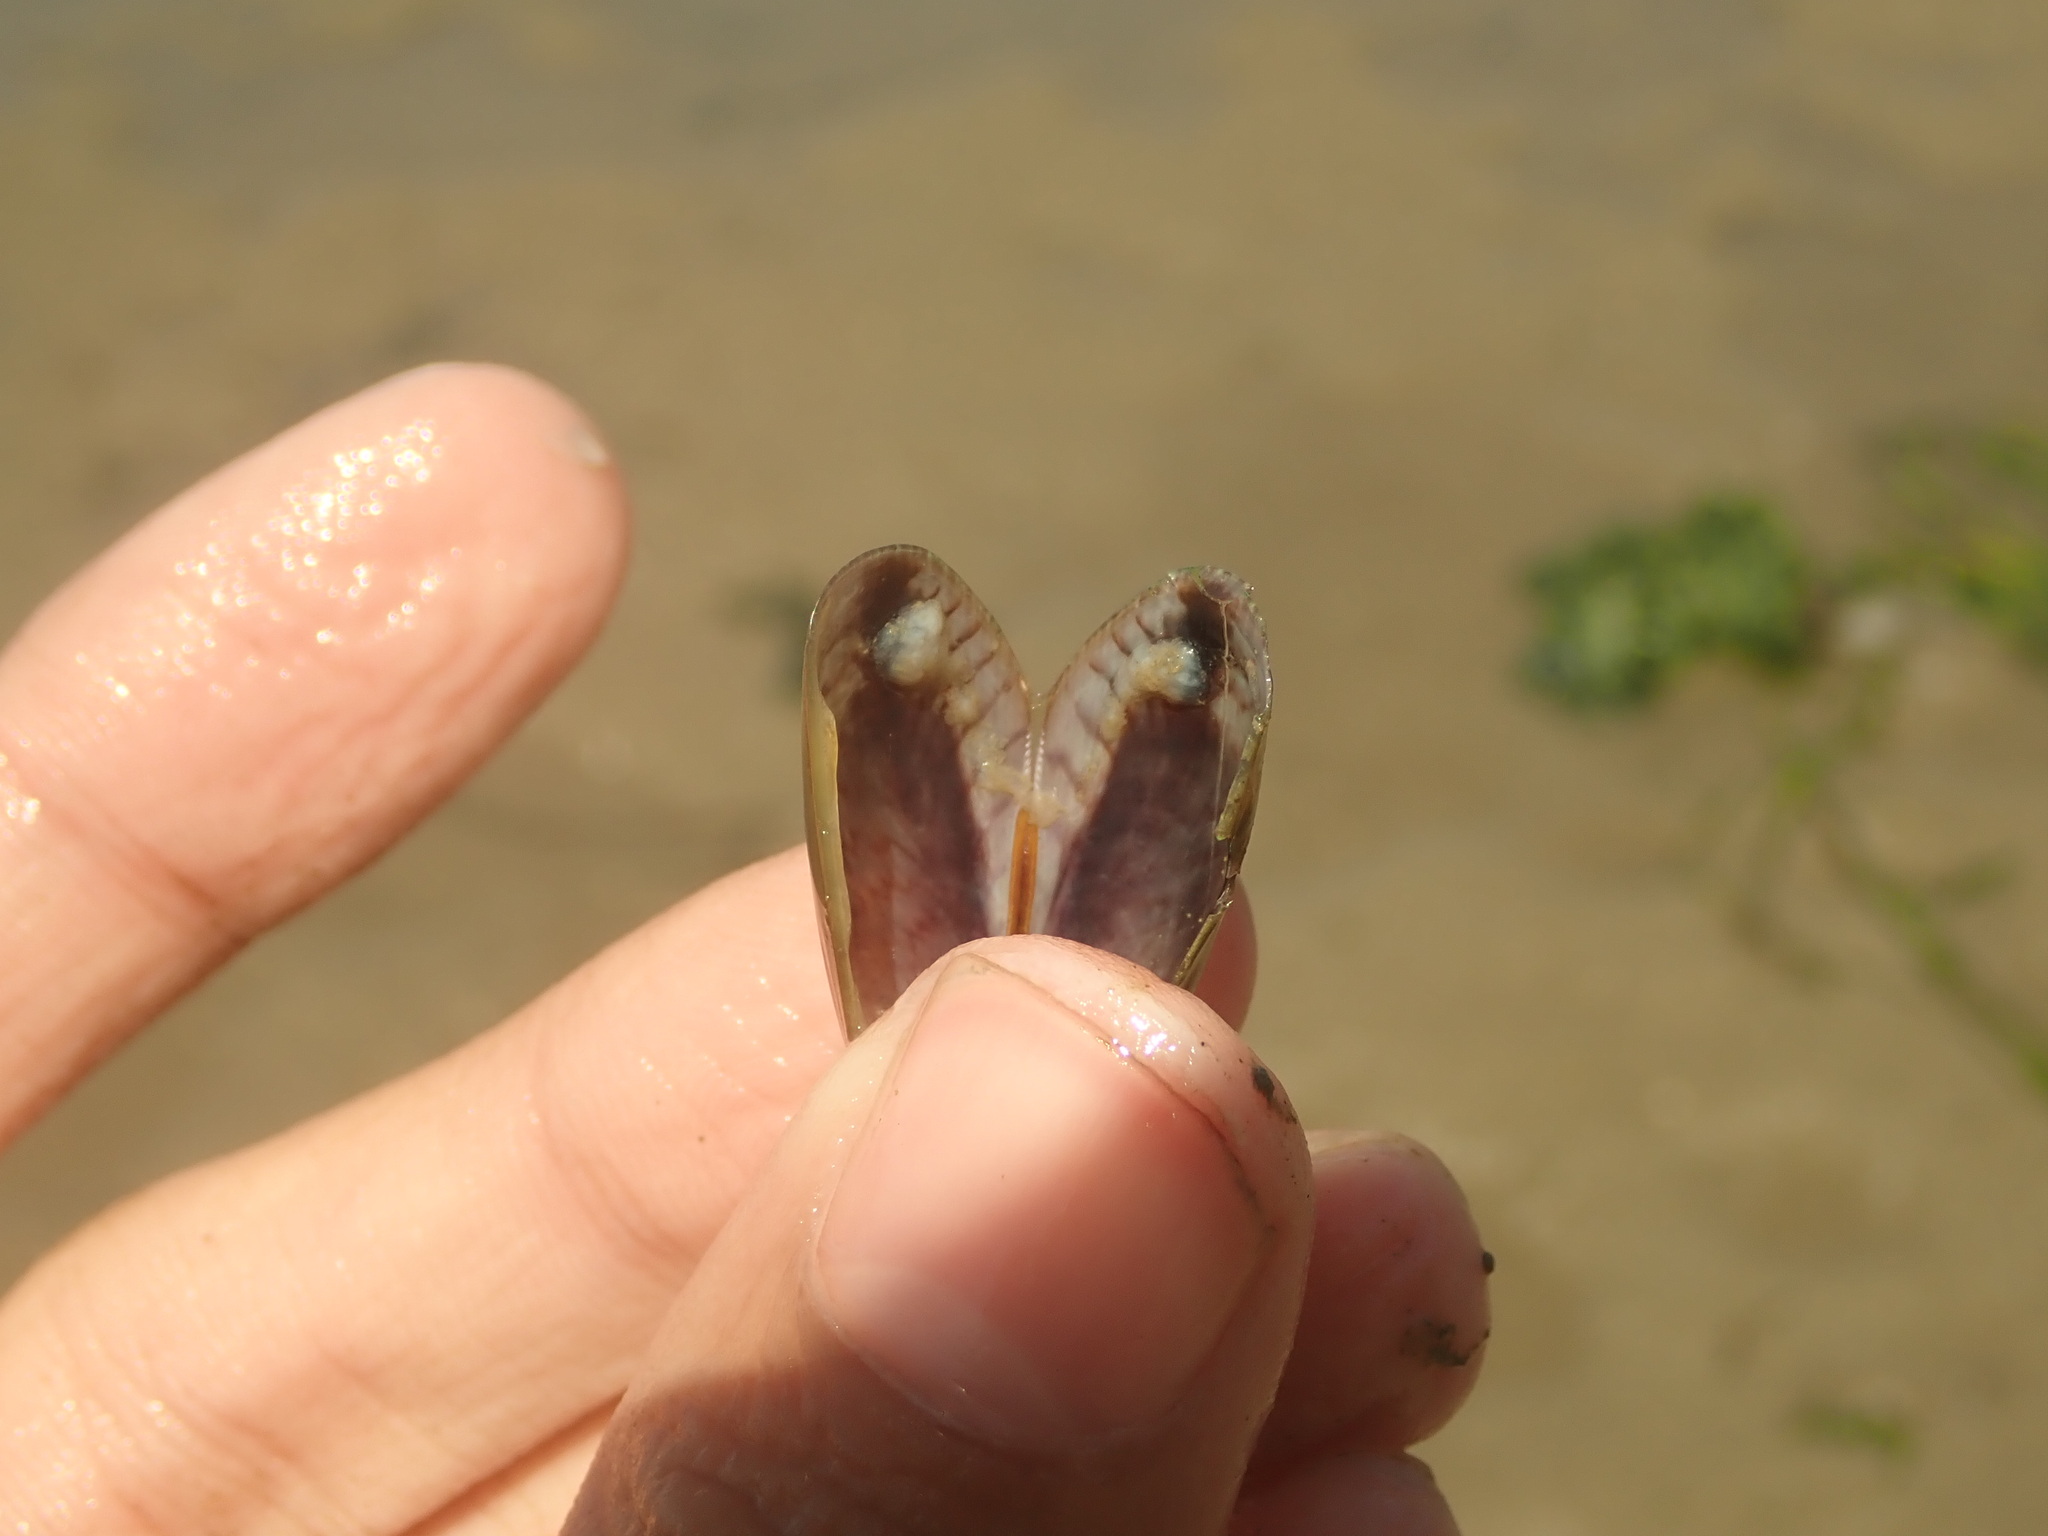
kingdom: Animalia
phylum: Mollusca
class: Bivalvia
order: Mytilida
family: Mytilidae
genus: Arcuatula
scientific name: Arcuatula senhousia
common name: Asian mussel
